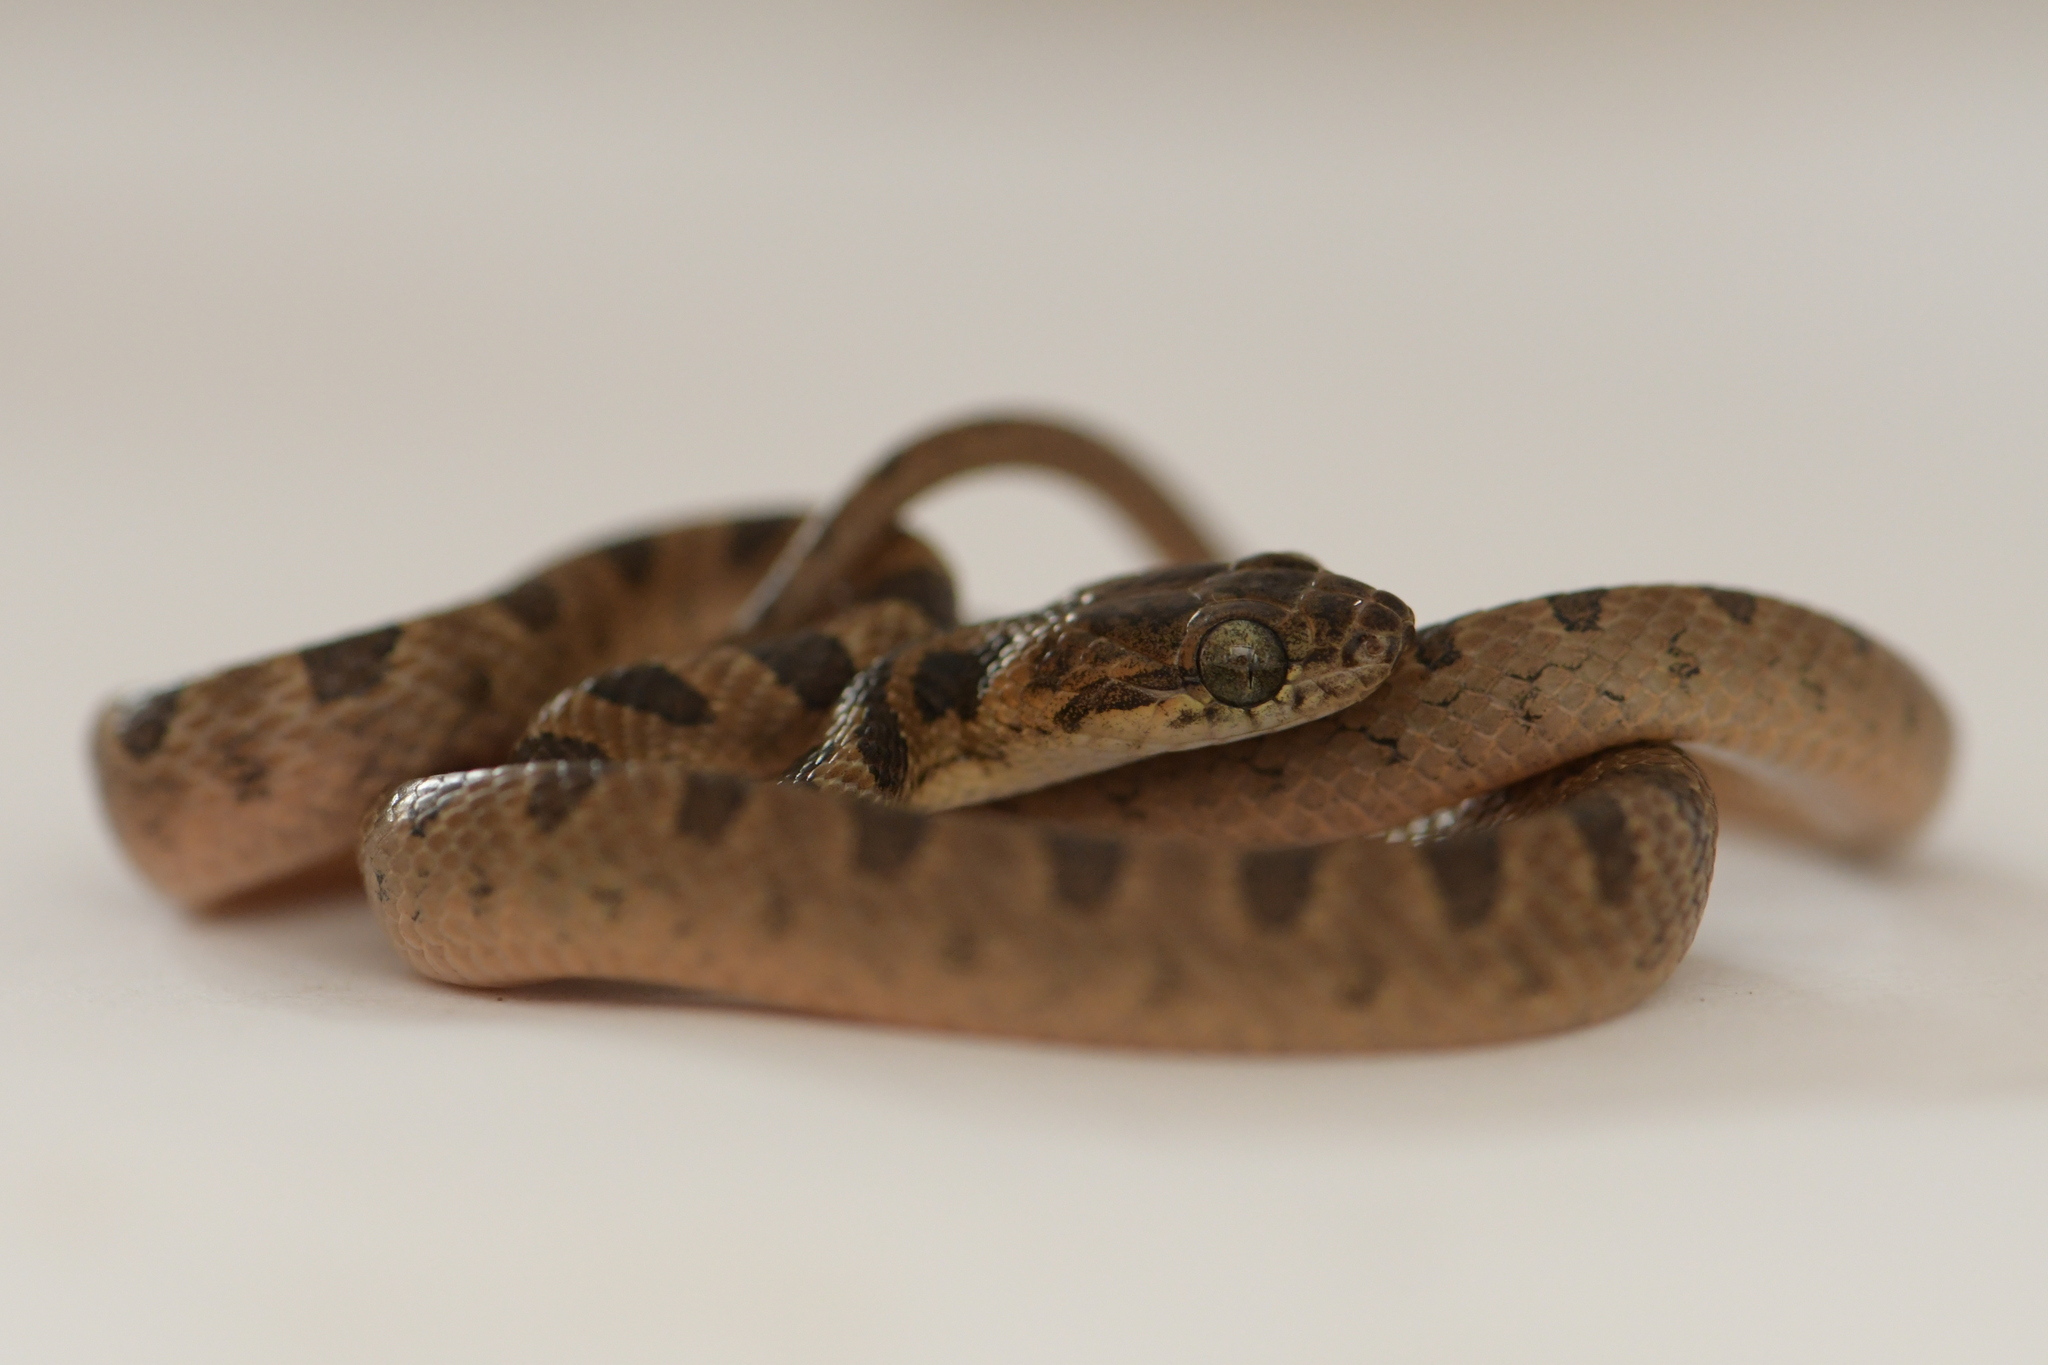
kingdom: Animalia
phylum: Chordata
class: Squamata
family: Colubridae
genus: Leptodeira
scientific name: Leptodeira septentrionalis
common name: Northern cat-eyed snake
